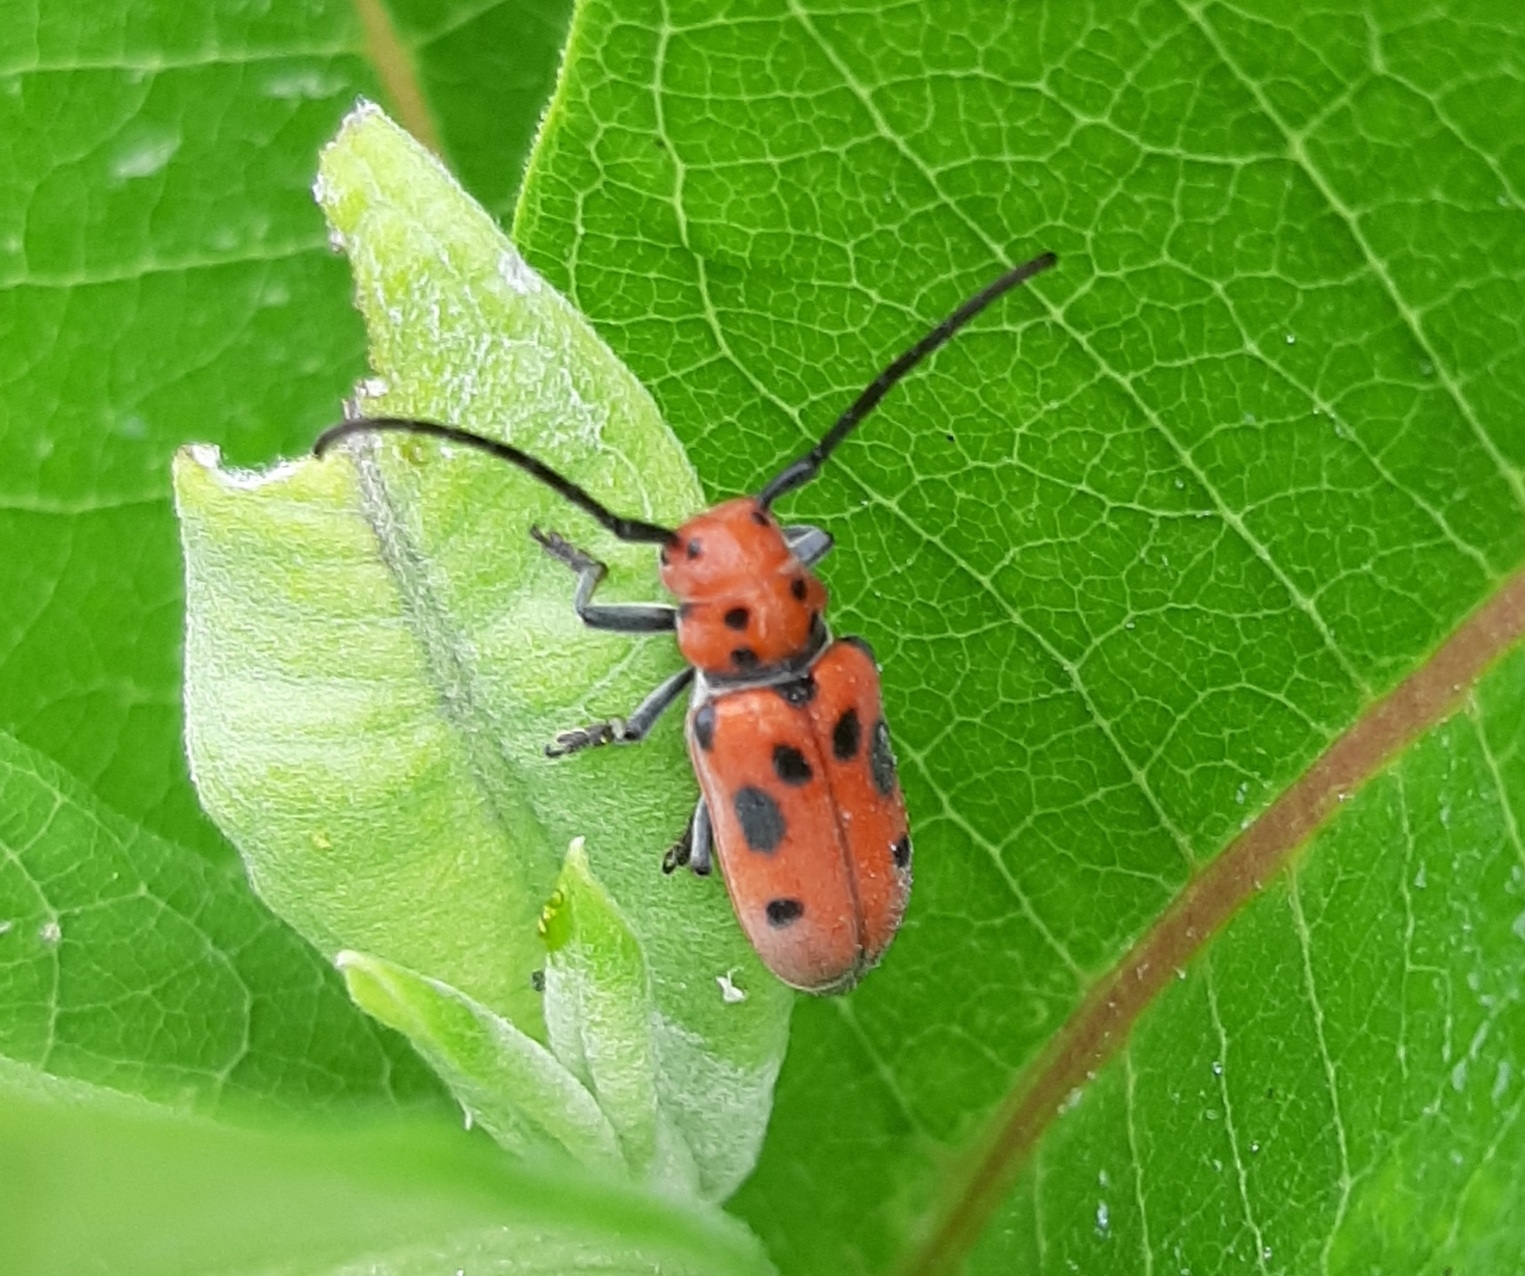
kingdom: Animalia
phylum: Arthropoda
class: Insecta
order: Coleoptera
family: Cerambycidae
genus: Tetraopes
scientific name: Tetraopes tetrophthalmus
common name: Red milkweed beetle
